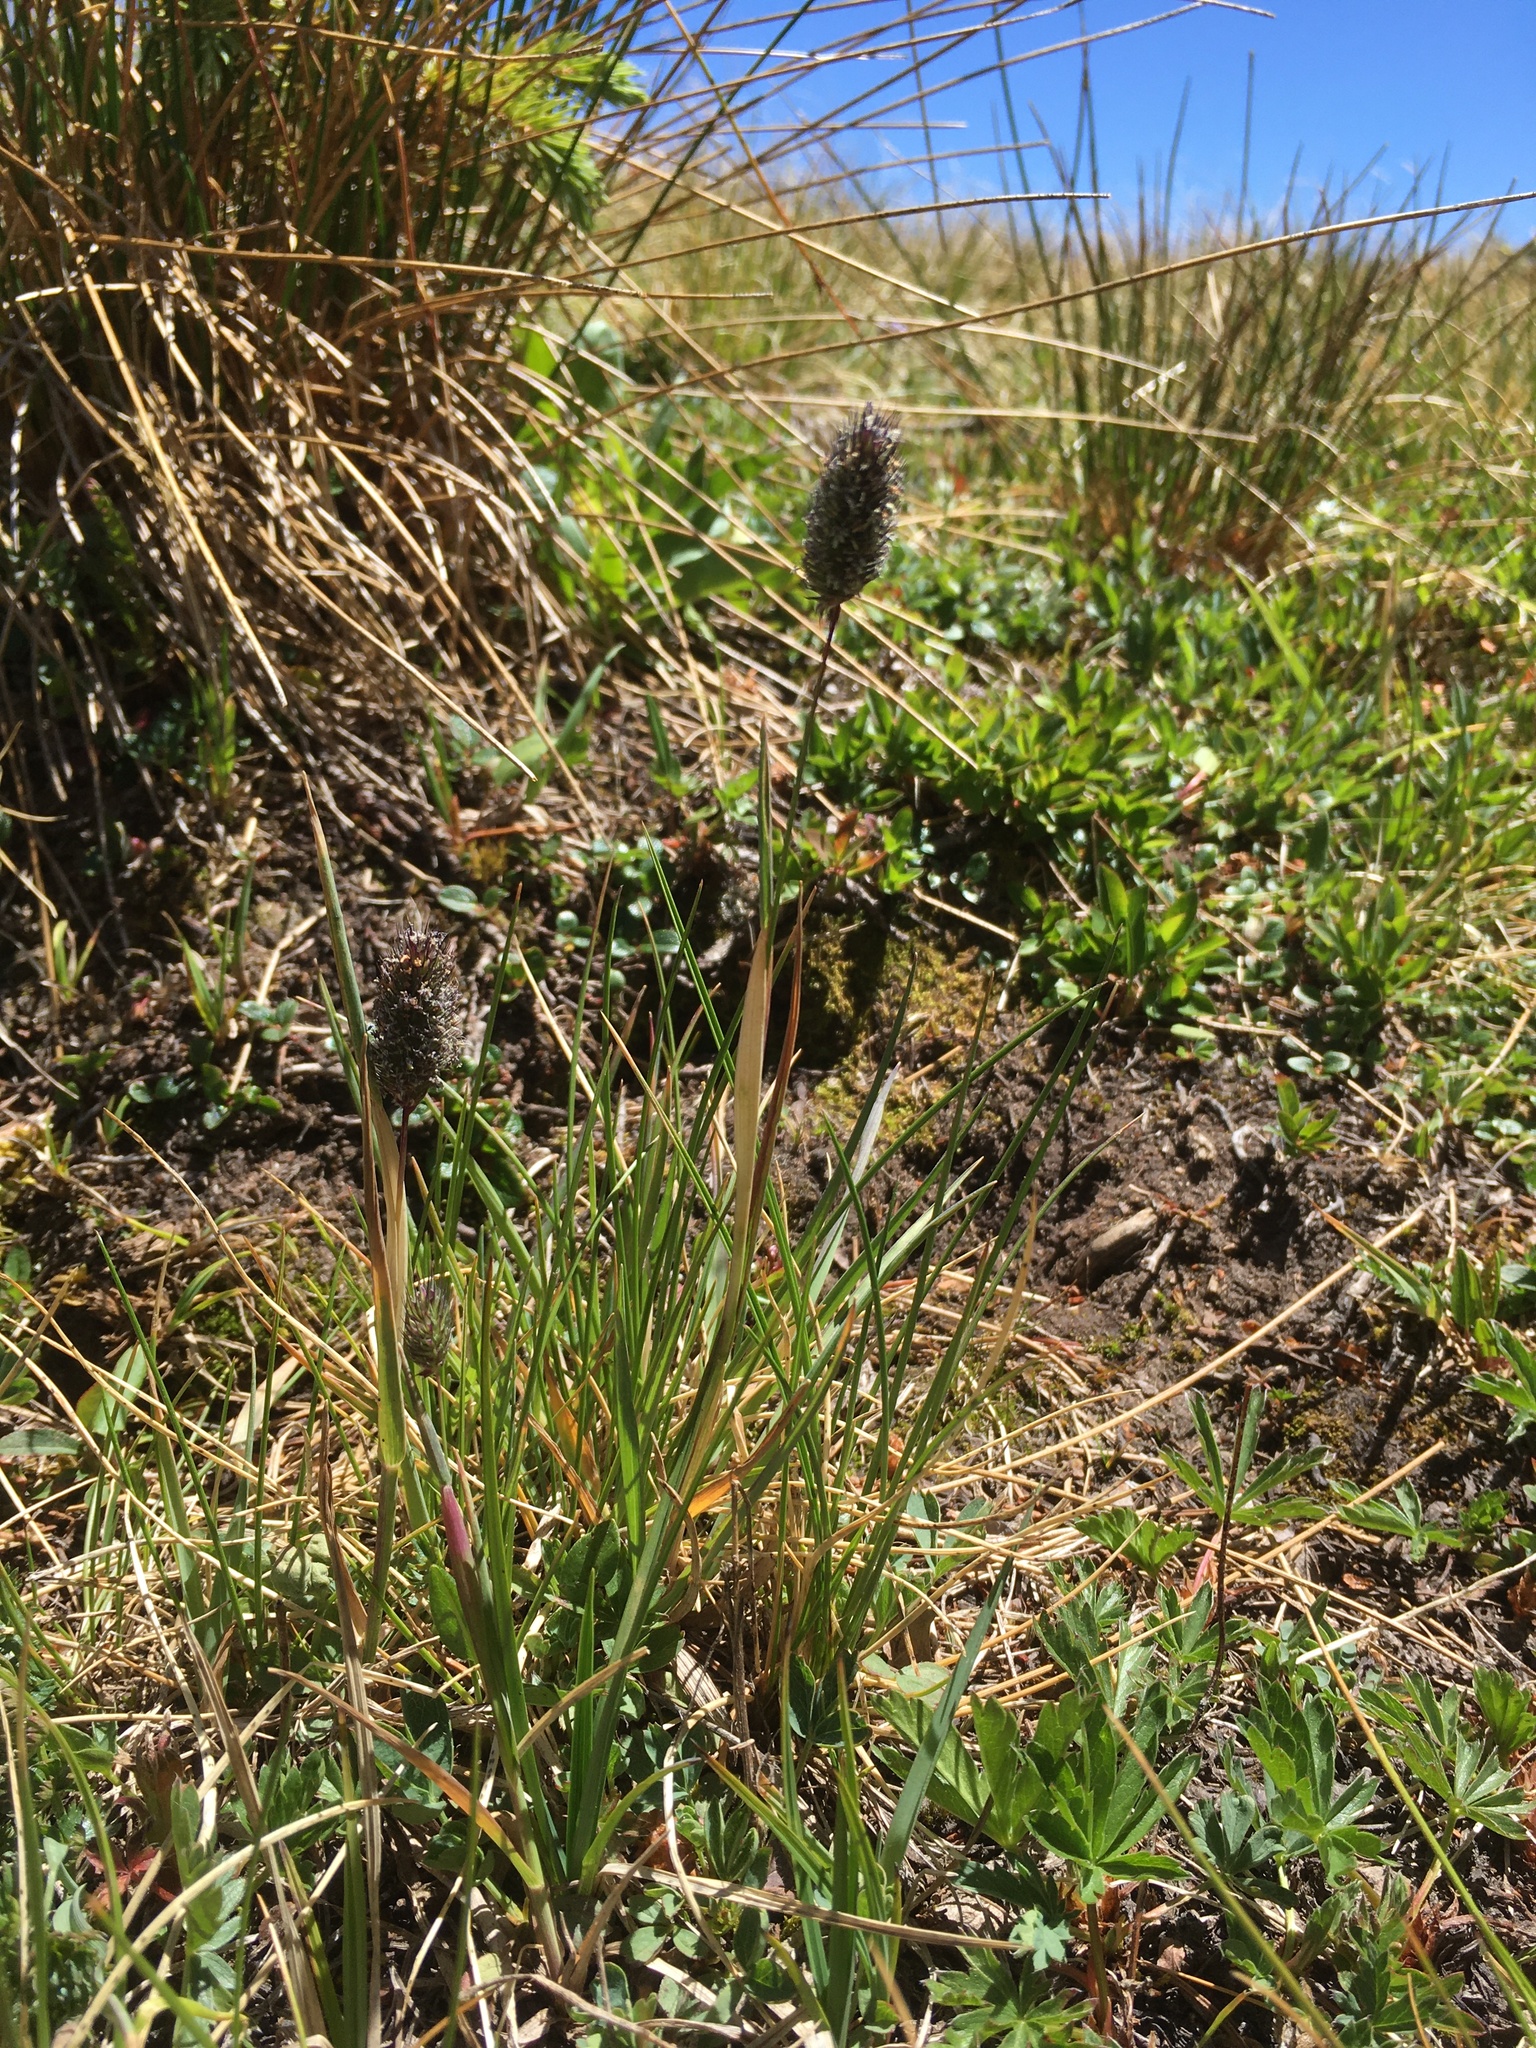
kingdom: Plantae
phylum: Tracheophyta
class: Liliopsida
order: Poales
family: Poaceae
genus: Phleum
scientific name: Phleum alpinum
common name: Alpine cat's-tail
